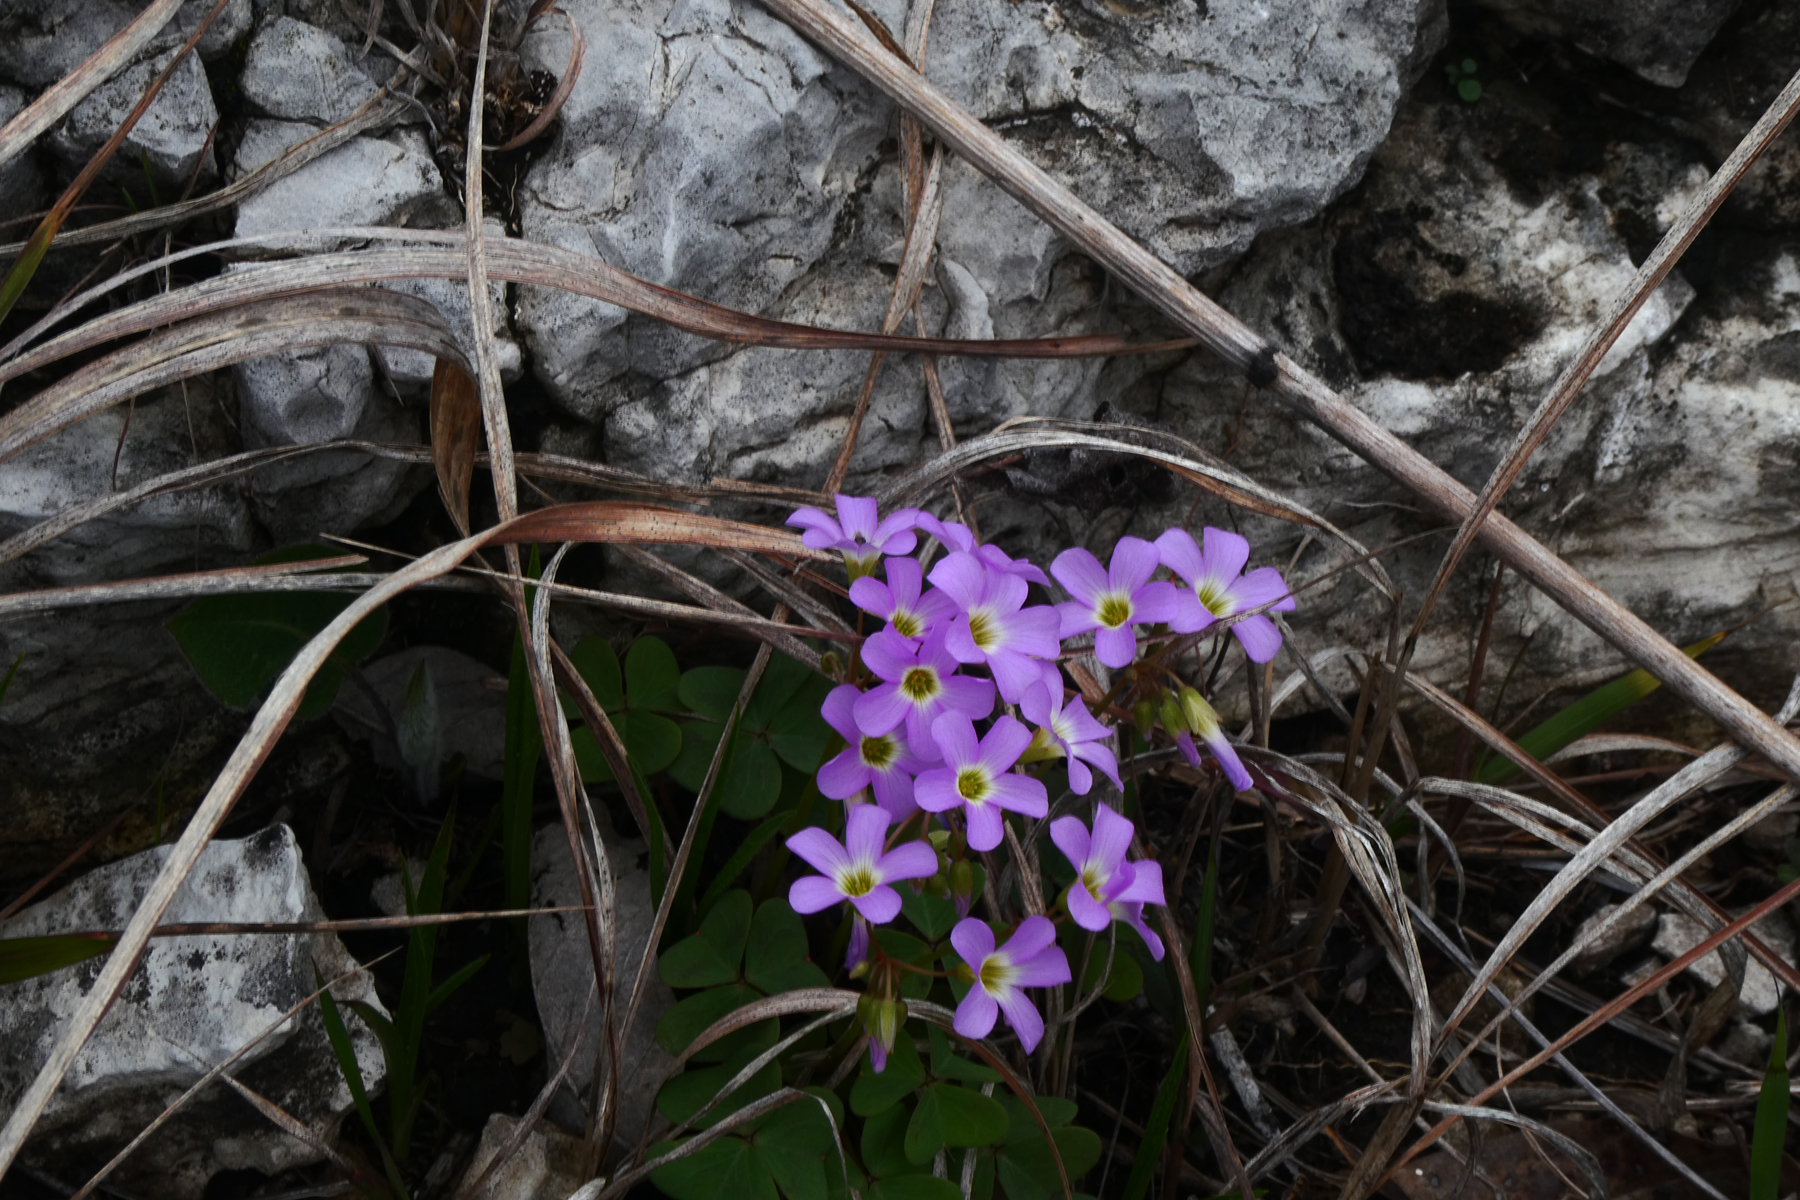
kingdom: Plantae
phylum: Tracheophyta
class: Magnoliopsida
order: Oxalidales
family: Oxalidaceae
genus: Oxalis
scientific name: Oxalis violacea
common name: Violet wood-sorrel
